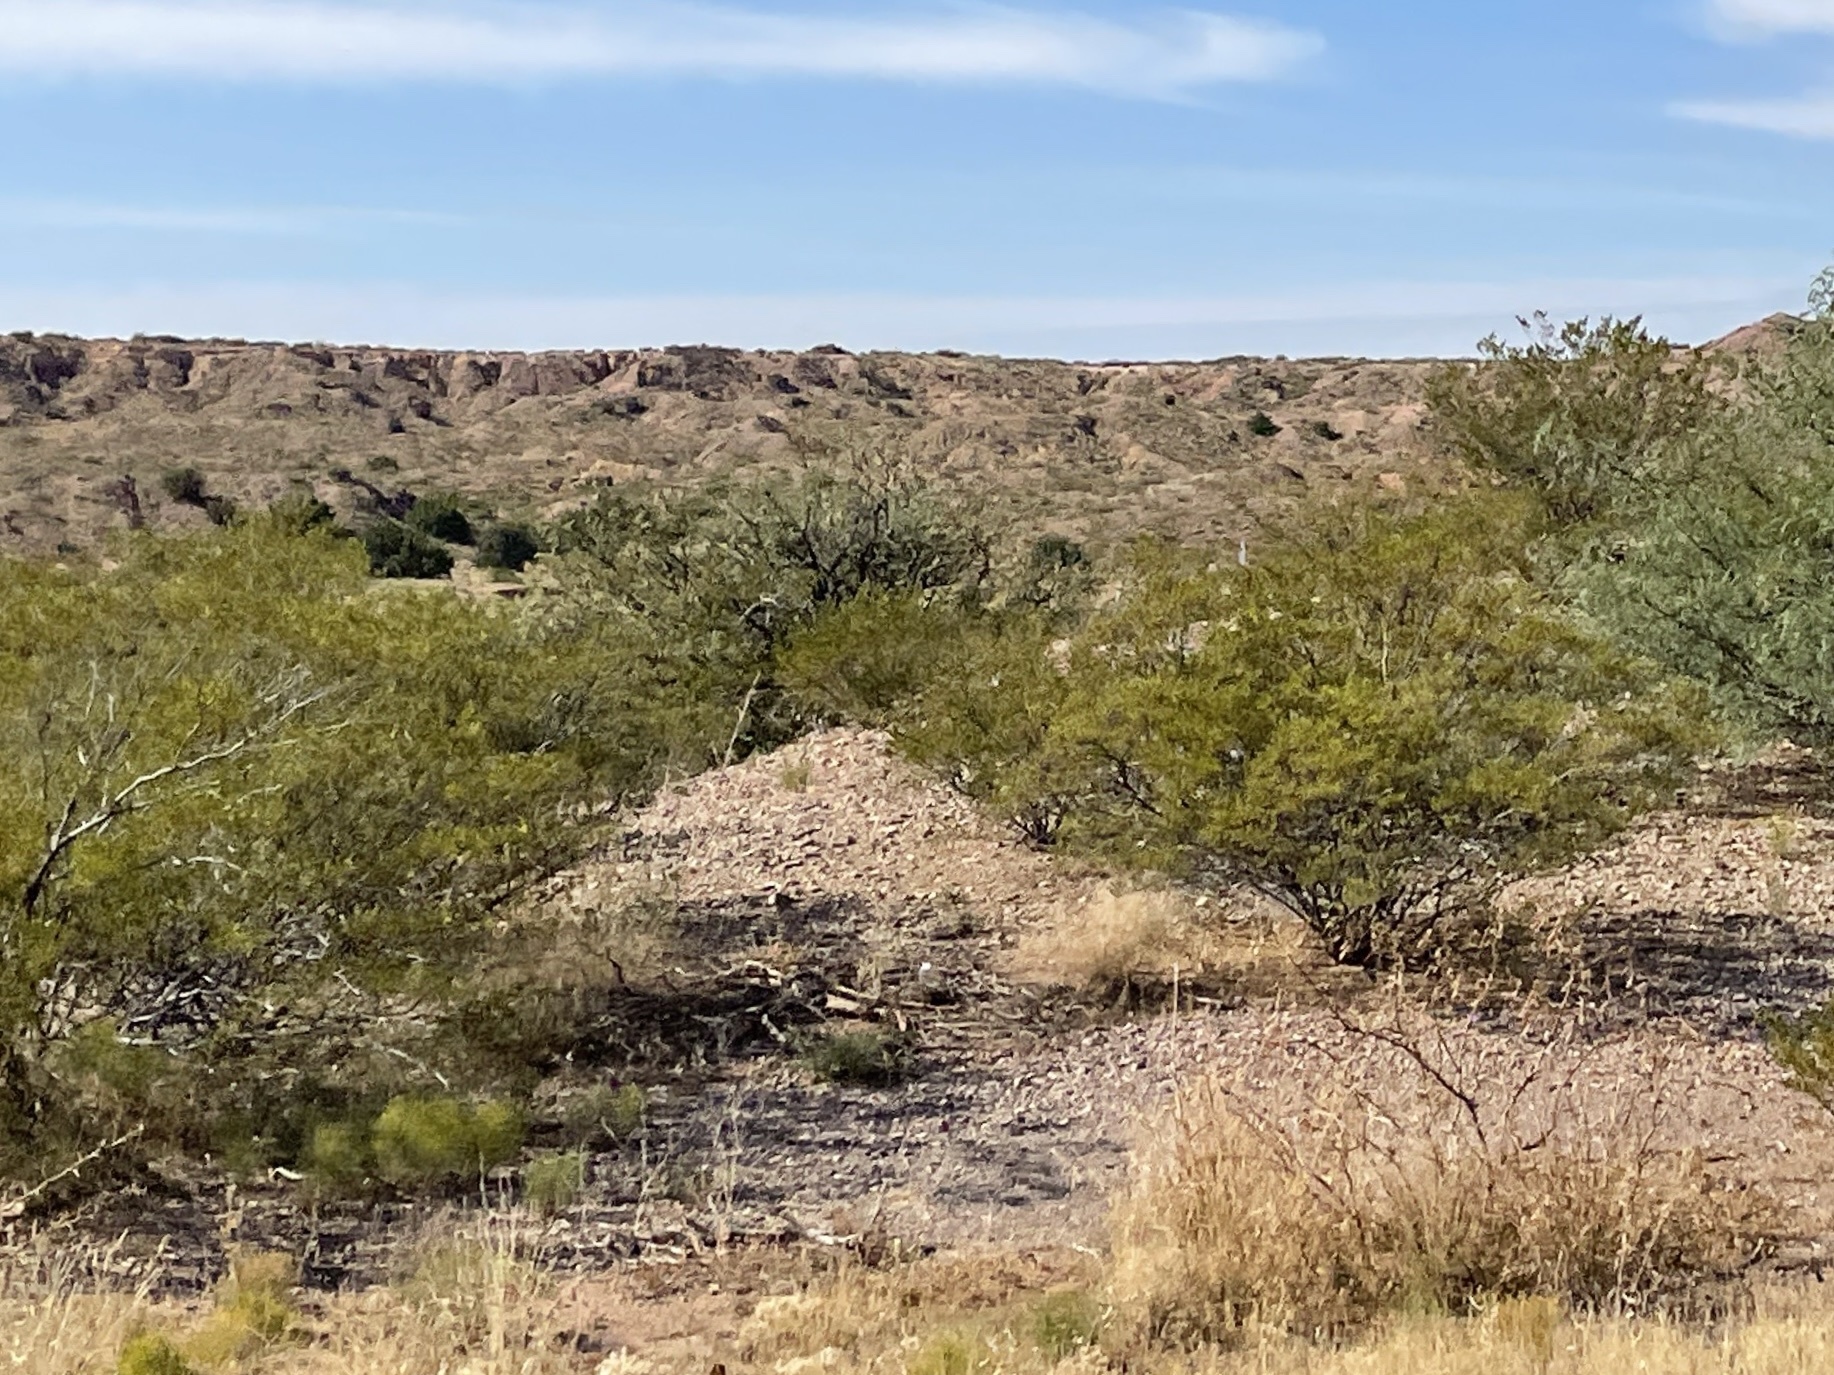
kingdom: Plantae
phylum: Tracheophyta
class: Magnoliopsida
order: Zygophyllales
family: Zygophyllaceae
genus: Larrea
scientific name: Larrea tridentata
